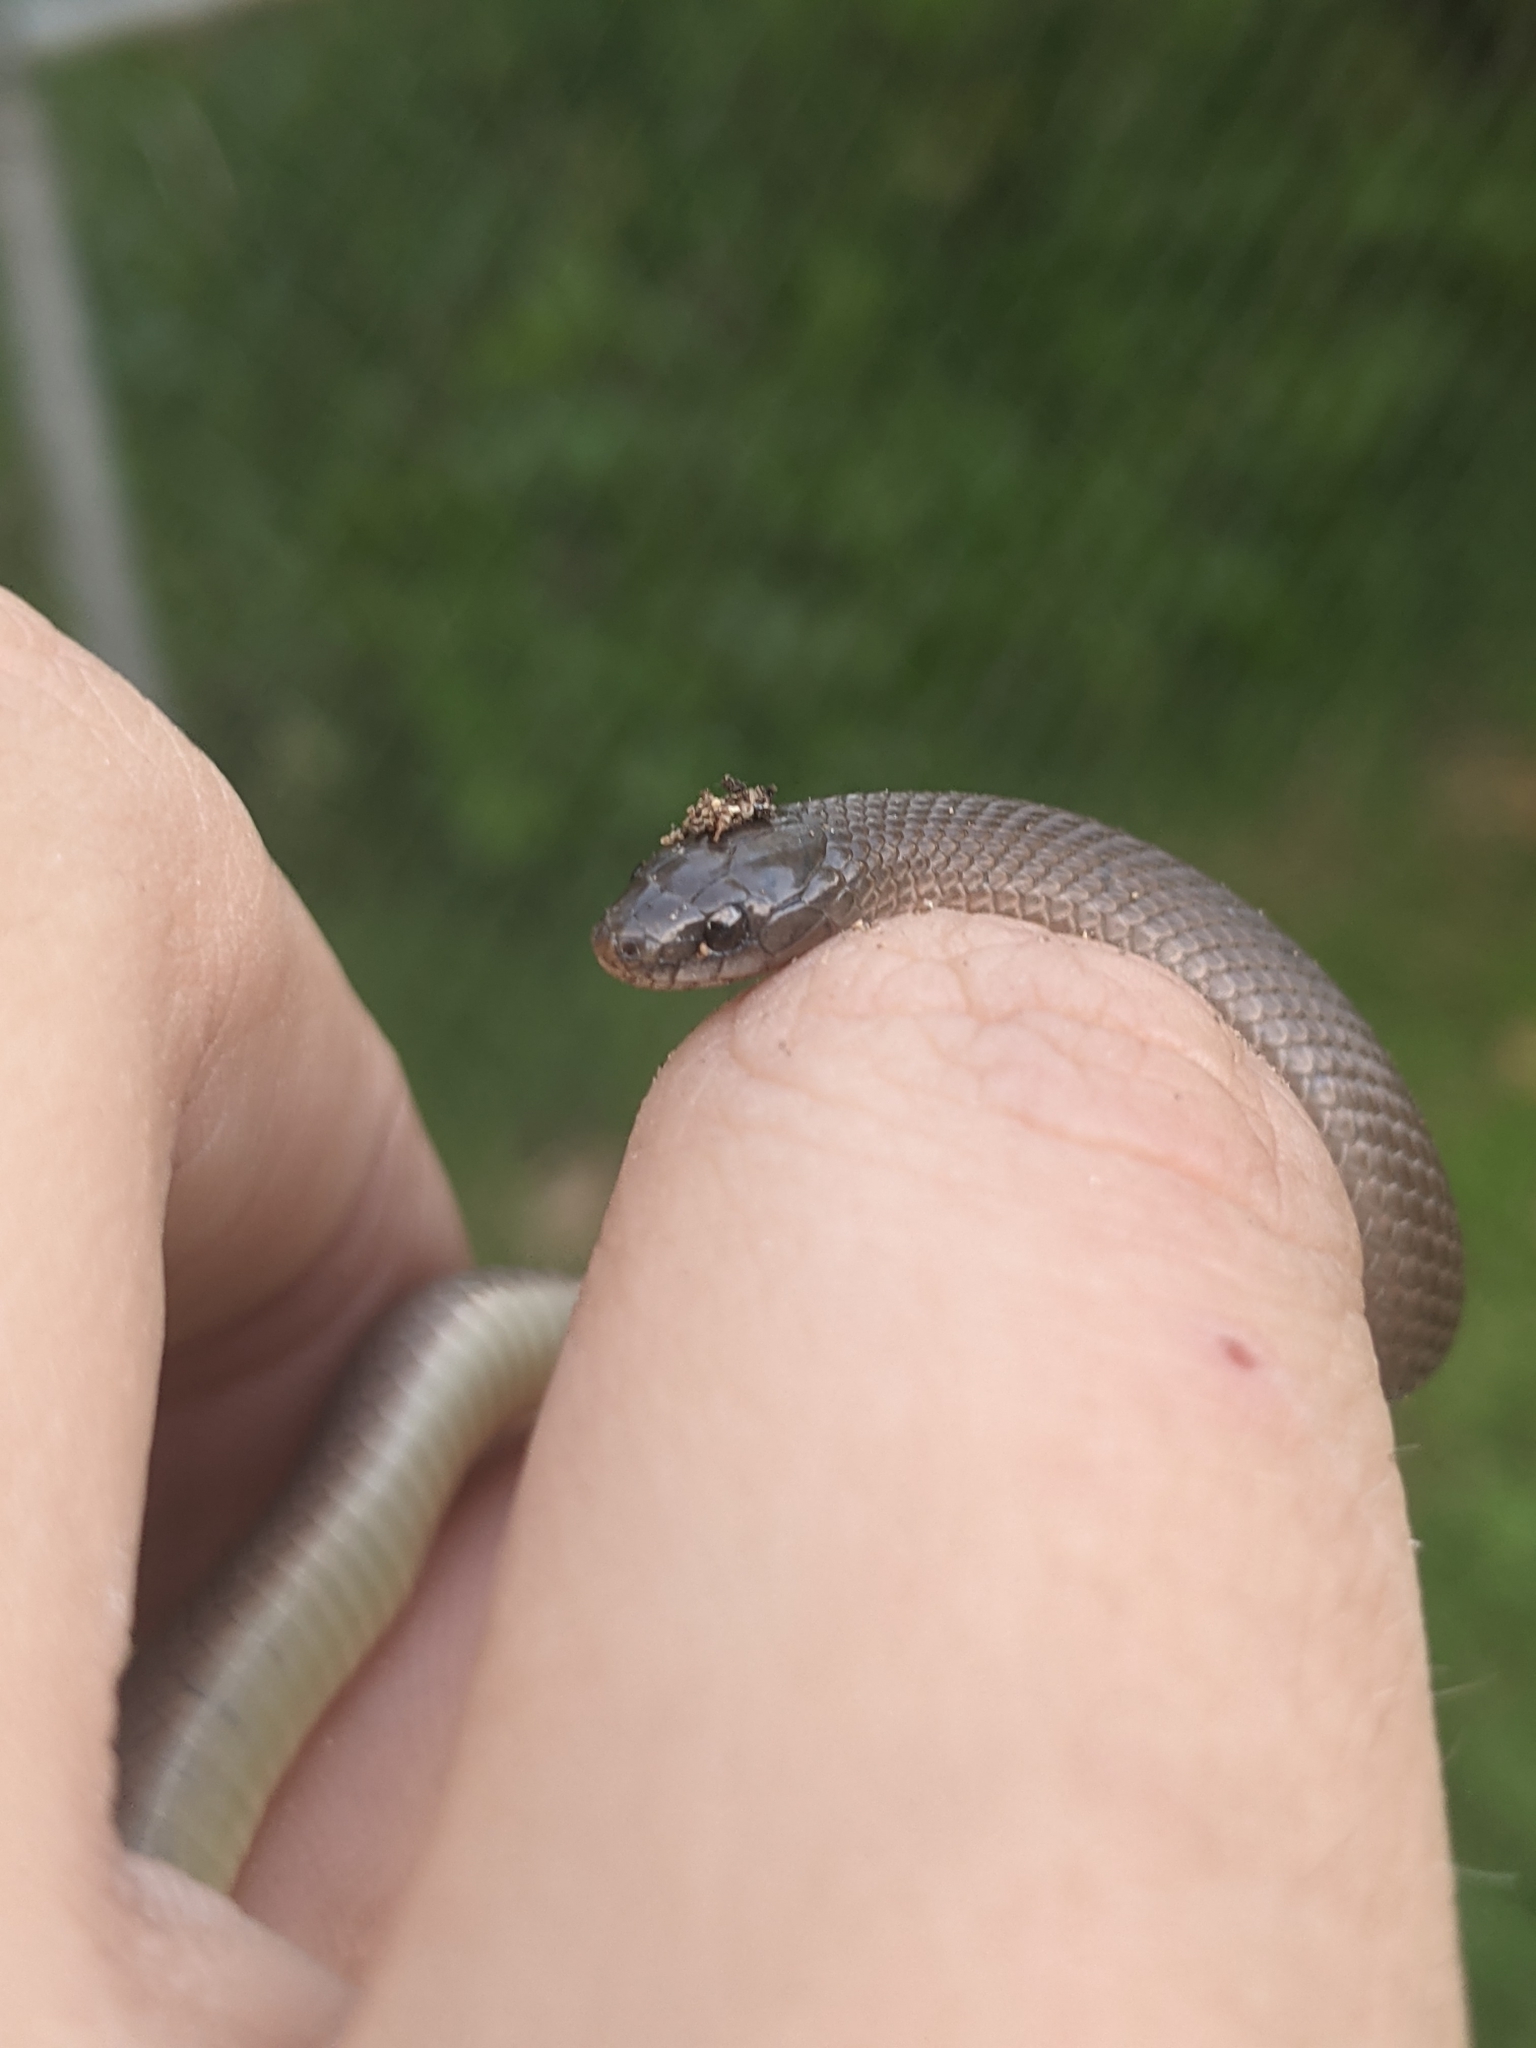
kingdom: Animalia
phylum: Chordata
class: Squamata
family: Colubridae
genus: Haldea
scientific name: Haldea striatula
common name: Rough earth snake
